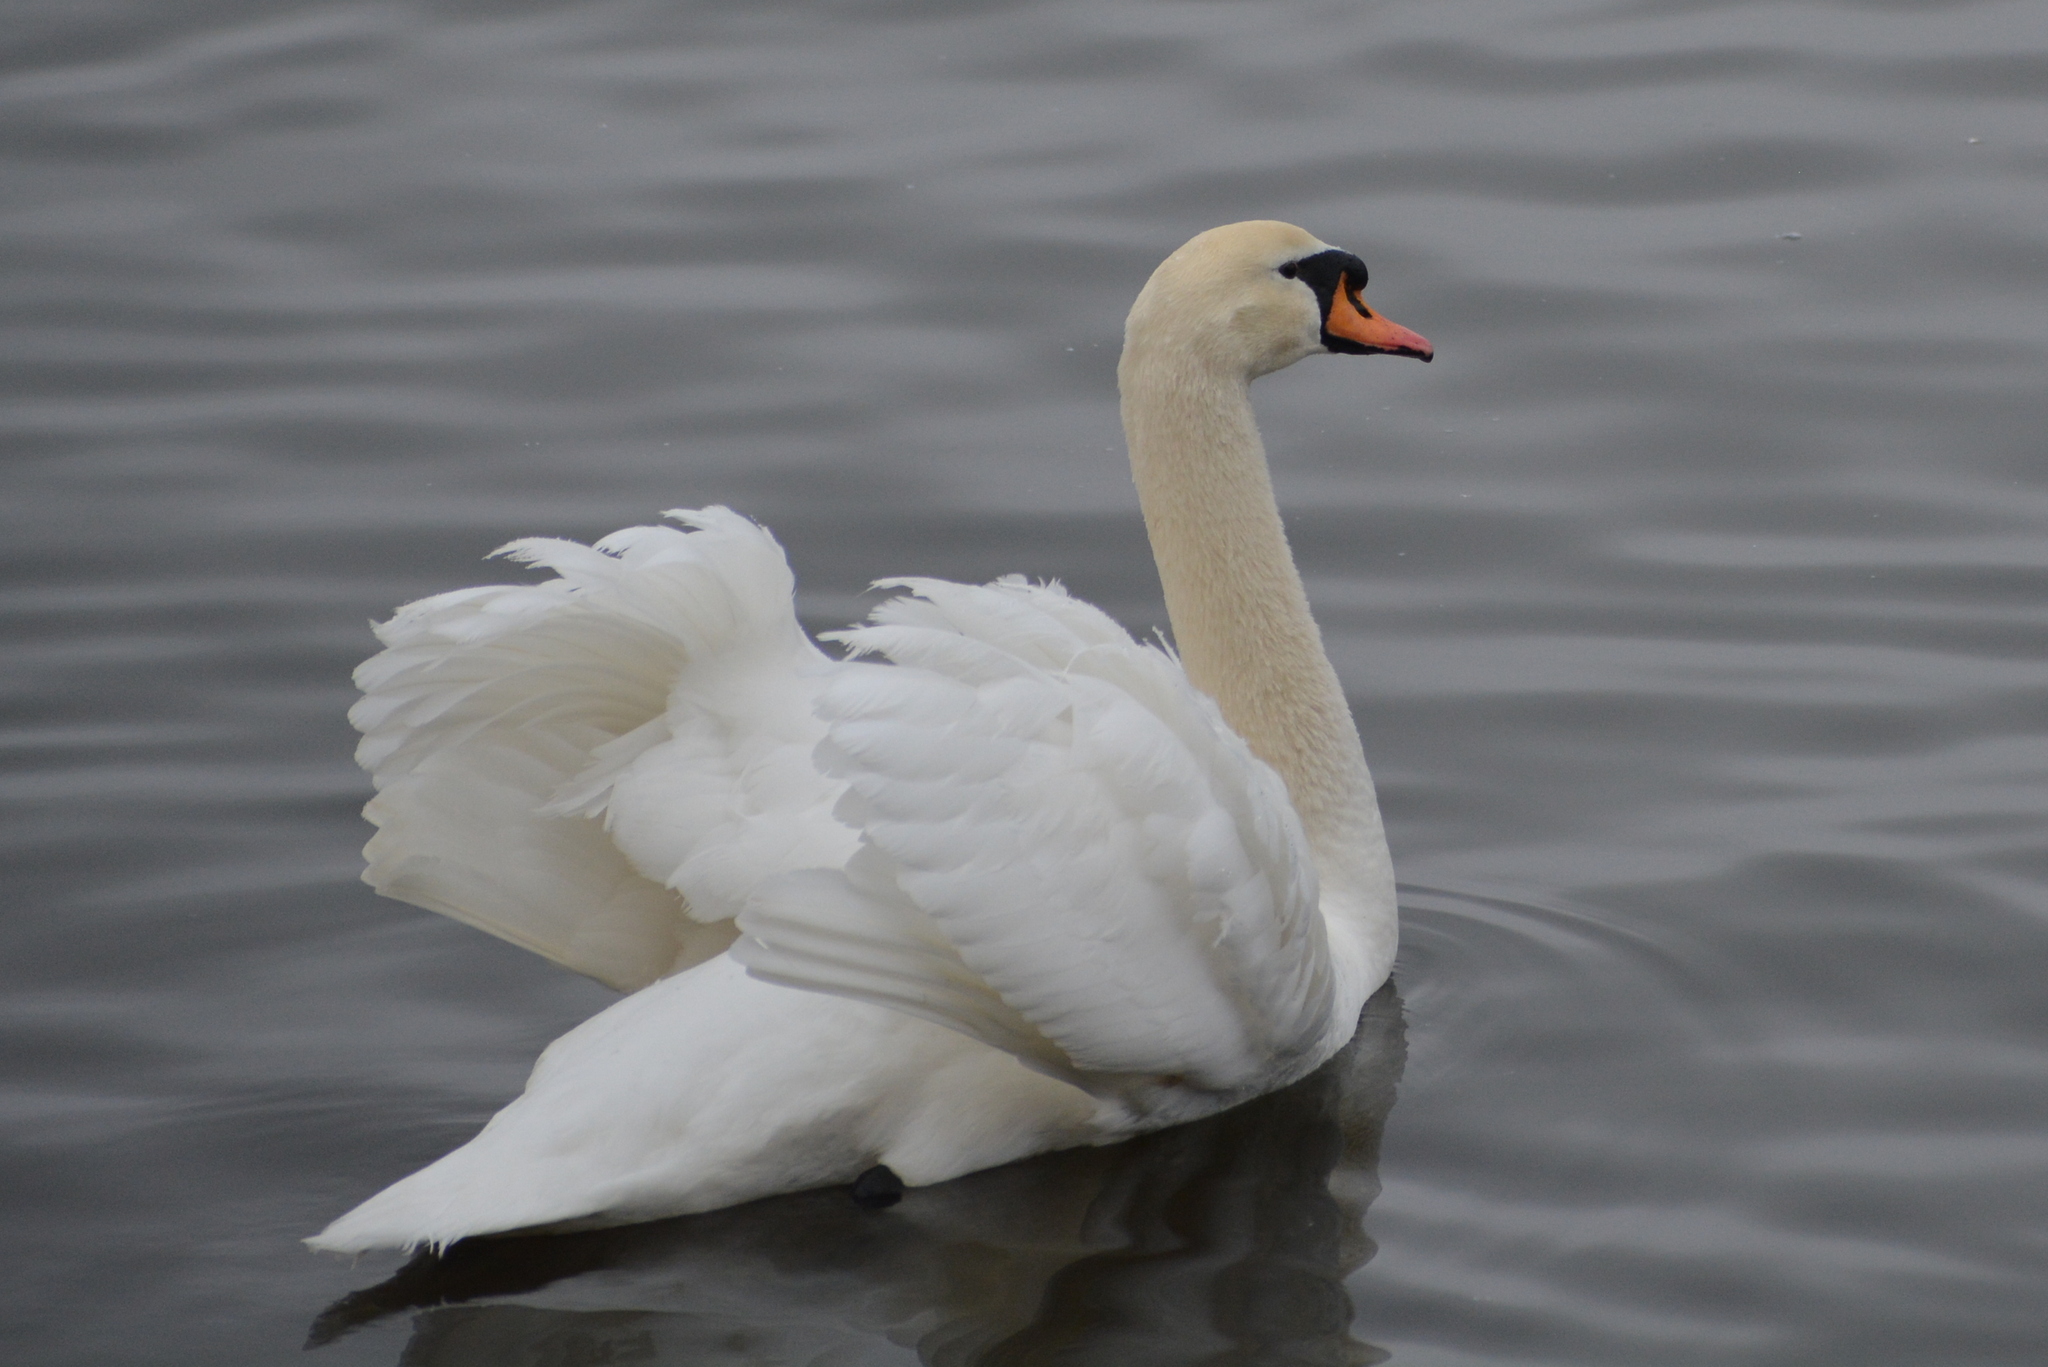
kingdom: Animalia
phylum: Chordata
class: Aves
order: Anseriformes
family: Anatidae
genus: Cygnus
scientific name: Cygnus olor
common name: Mute swan
